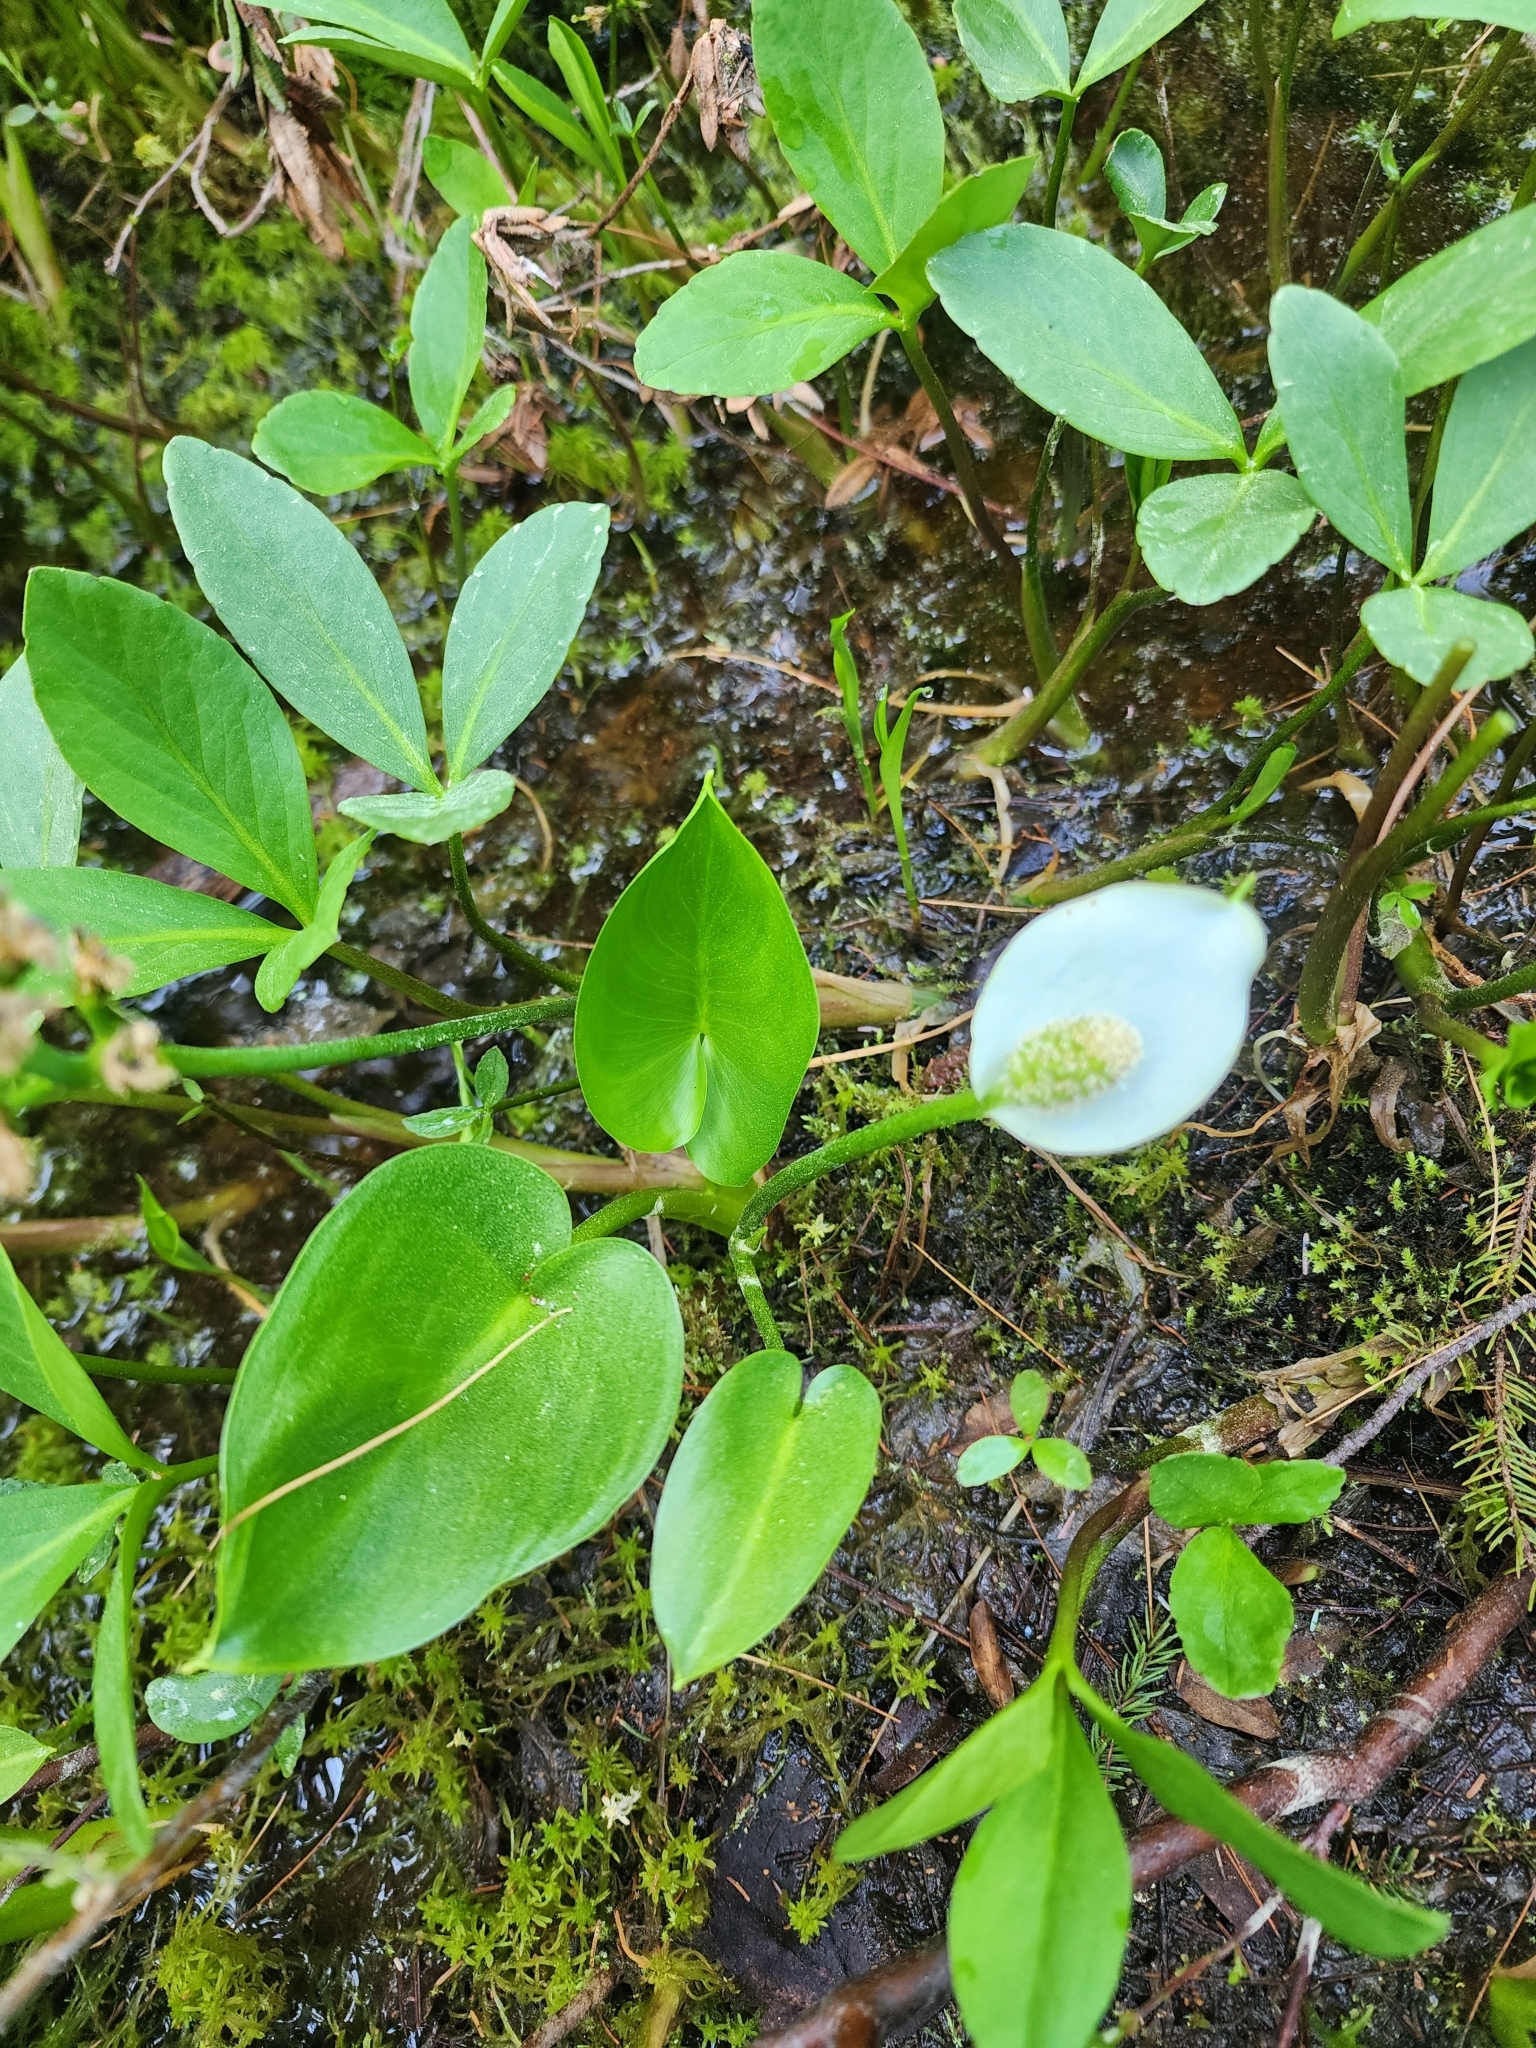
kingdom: Plantae
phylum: Tracheophyta
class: Liliopsida
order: Alismatales
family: Araceae
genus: Calla
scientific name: Calla palustris
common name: Bog arum
